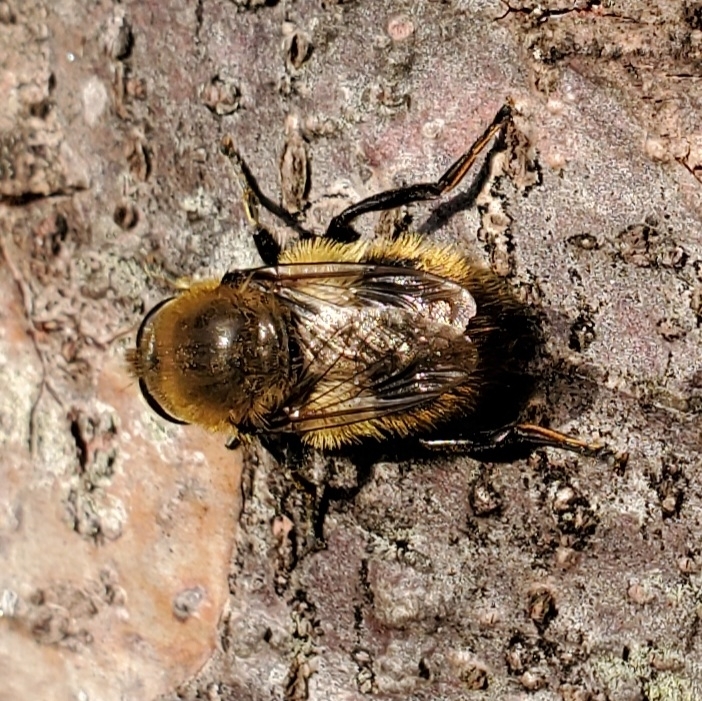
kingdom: Animalia
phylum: Arthropoda
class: Insecta
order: Diptera
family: Syrphidae
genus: Merodon
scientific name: Merodon equestris
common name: Greater bulb-fly
